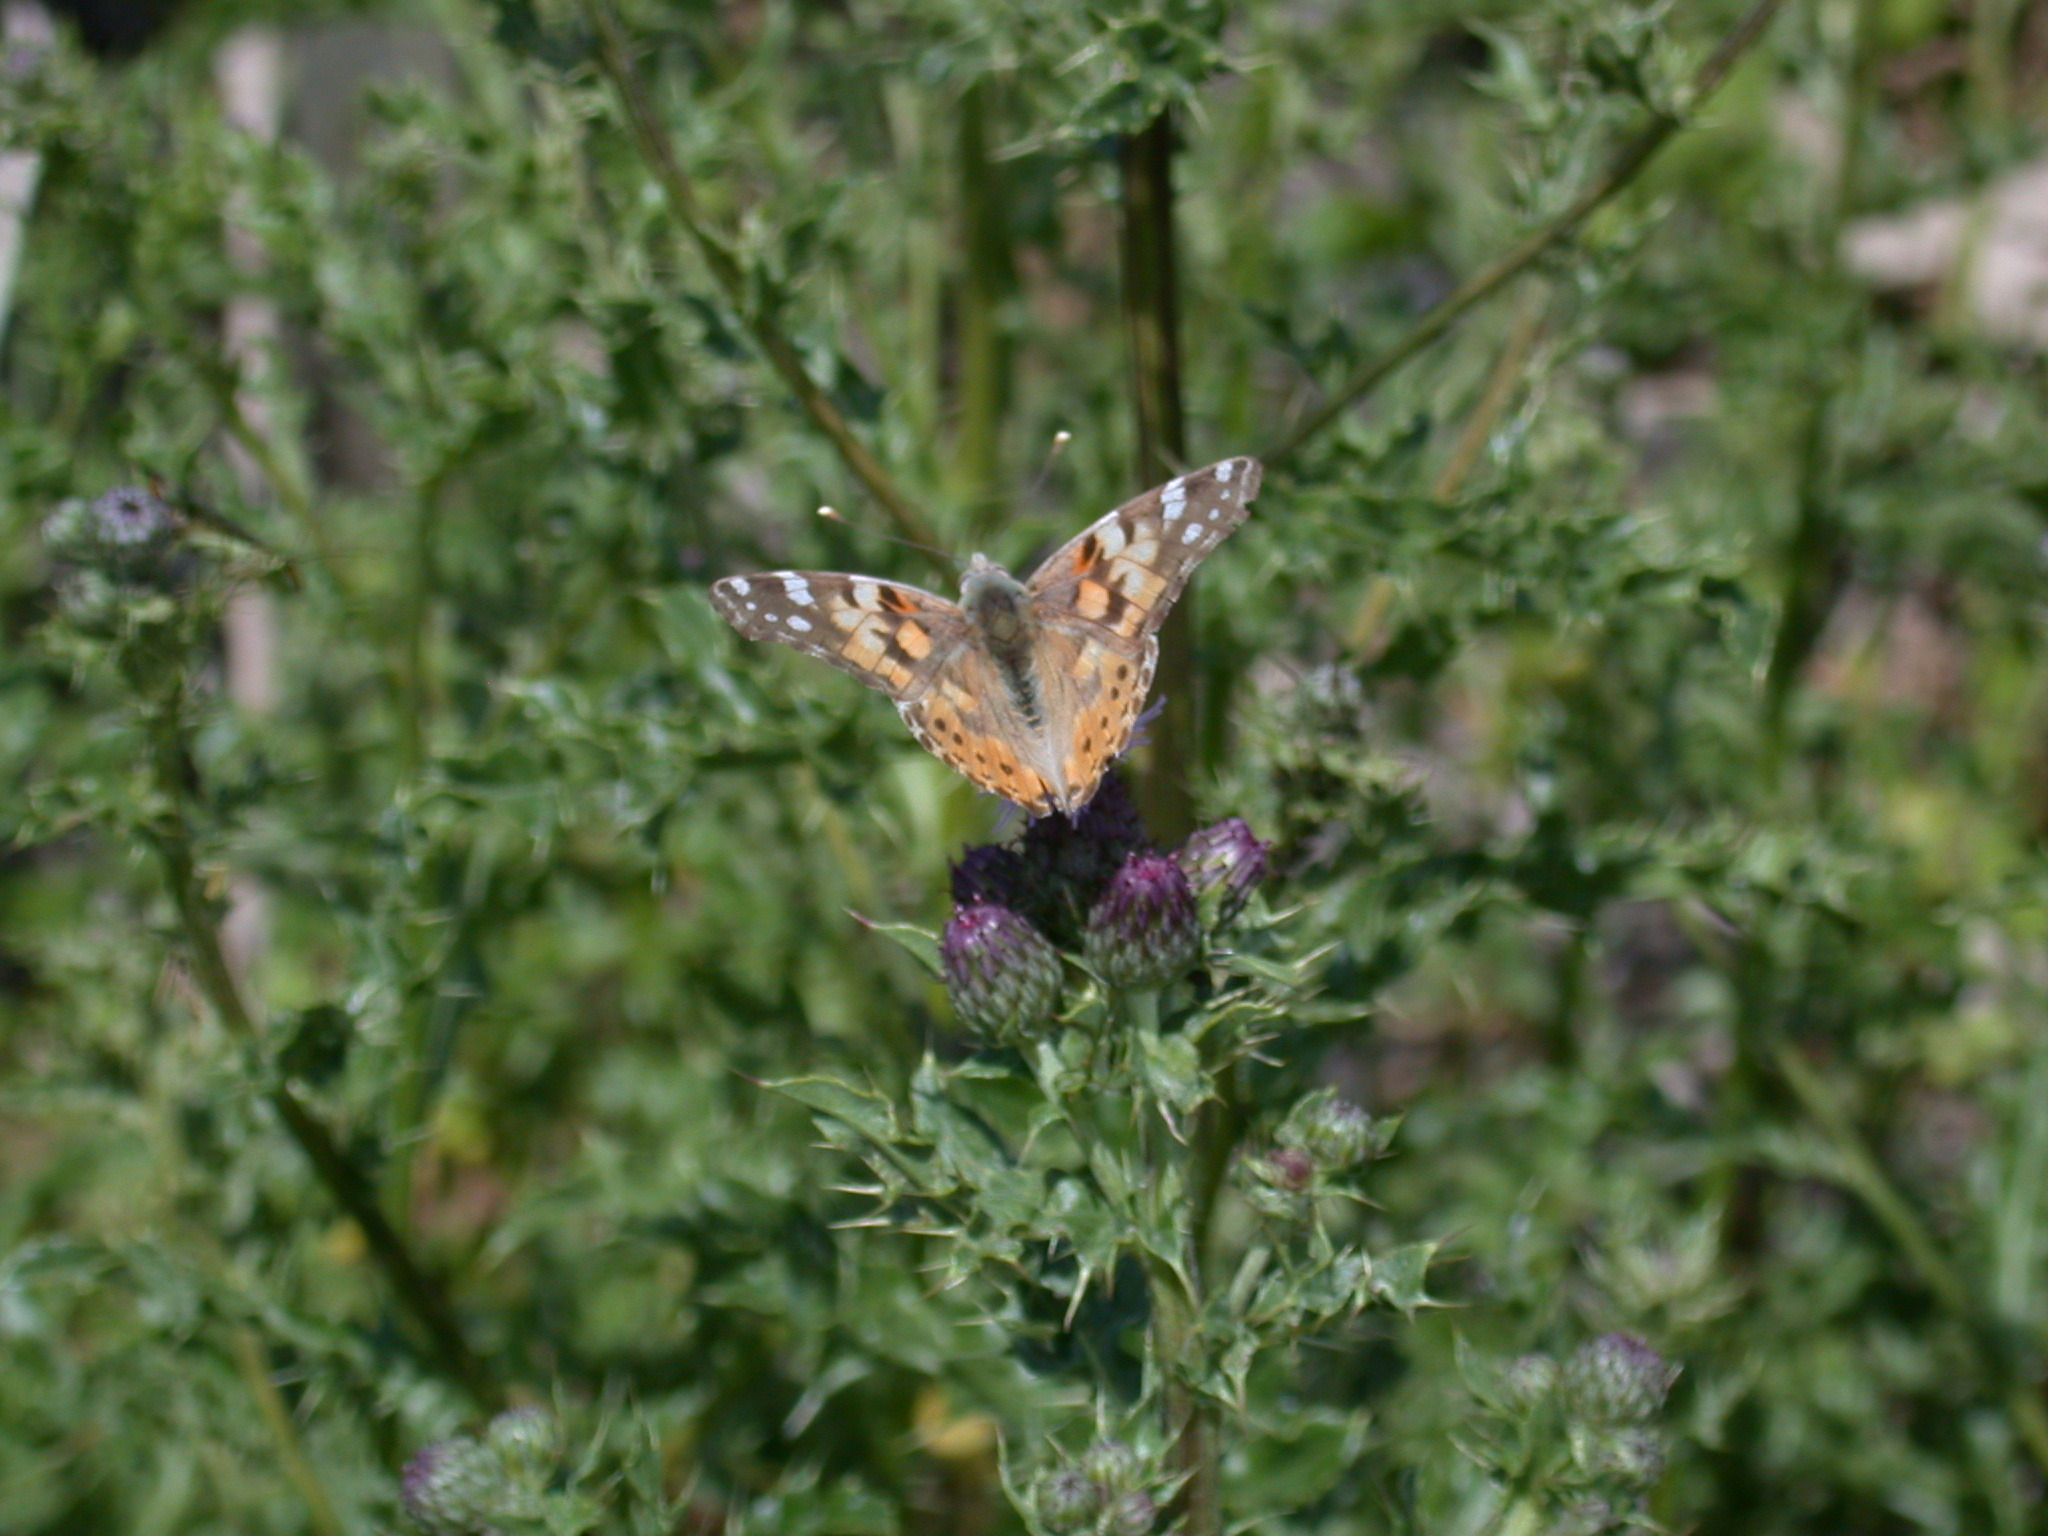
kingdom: Animalia
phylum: Arthropoda
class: Insecta
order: Lepidoptera
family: Nymphalidae
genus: Vanessa
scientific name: Vanessa cardui
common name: Painted lady
